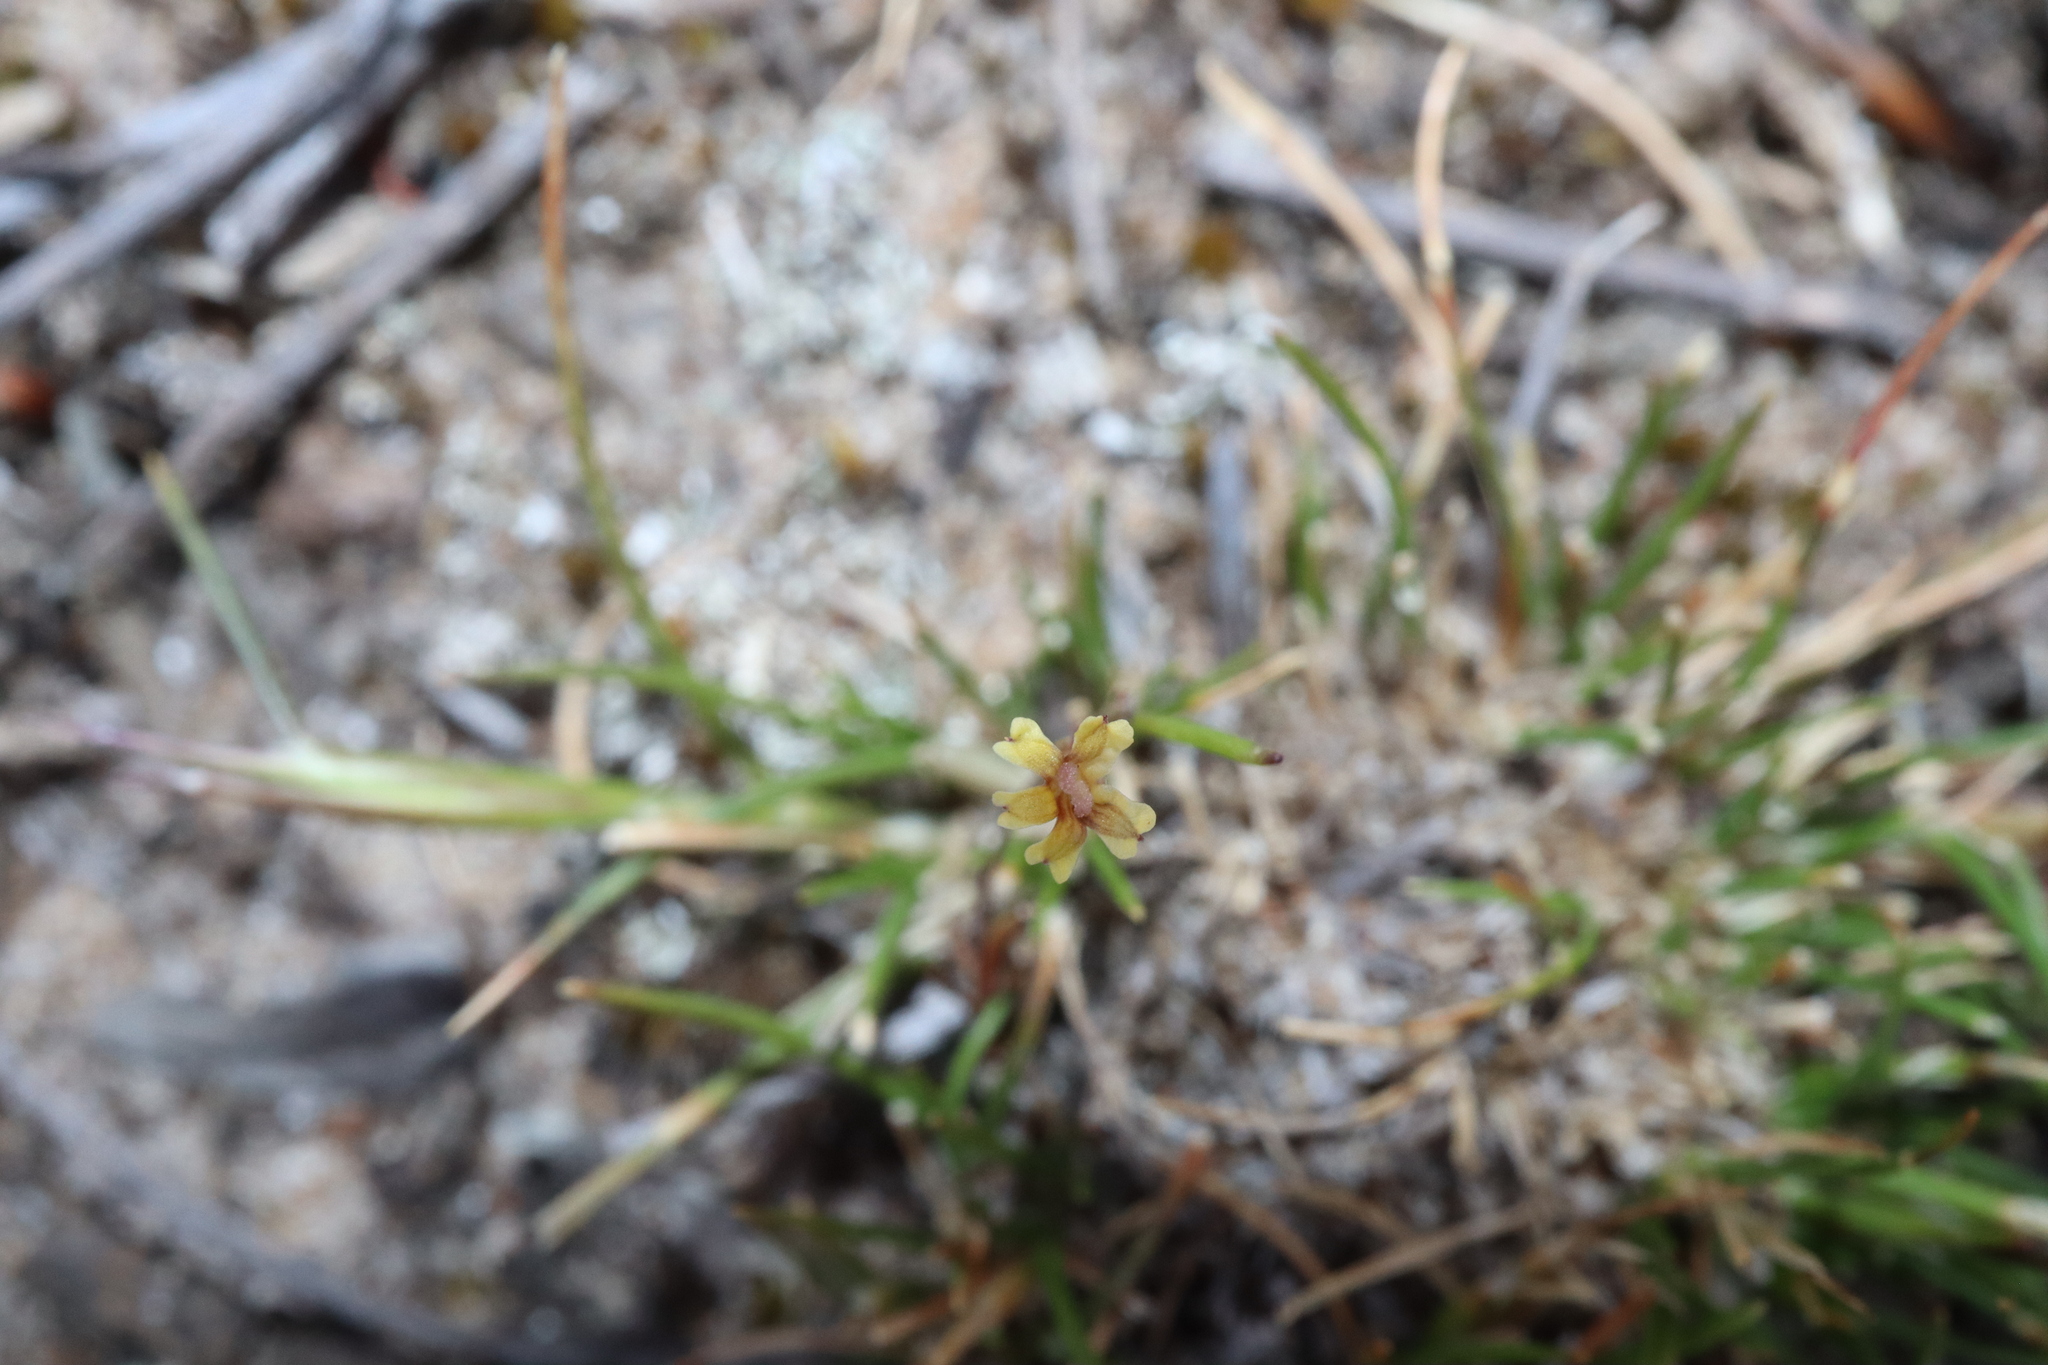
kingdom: Plantae
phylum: Tracheophyta
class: Magnoliopsida
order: Asterales
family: Goodeniaceae
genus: Goodenia
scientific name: Goodenia micrantha
